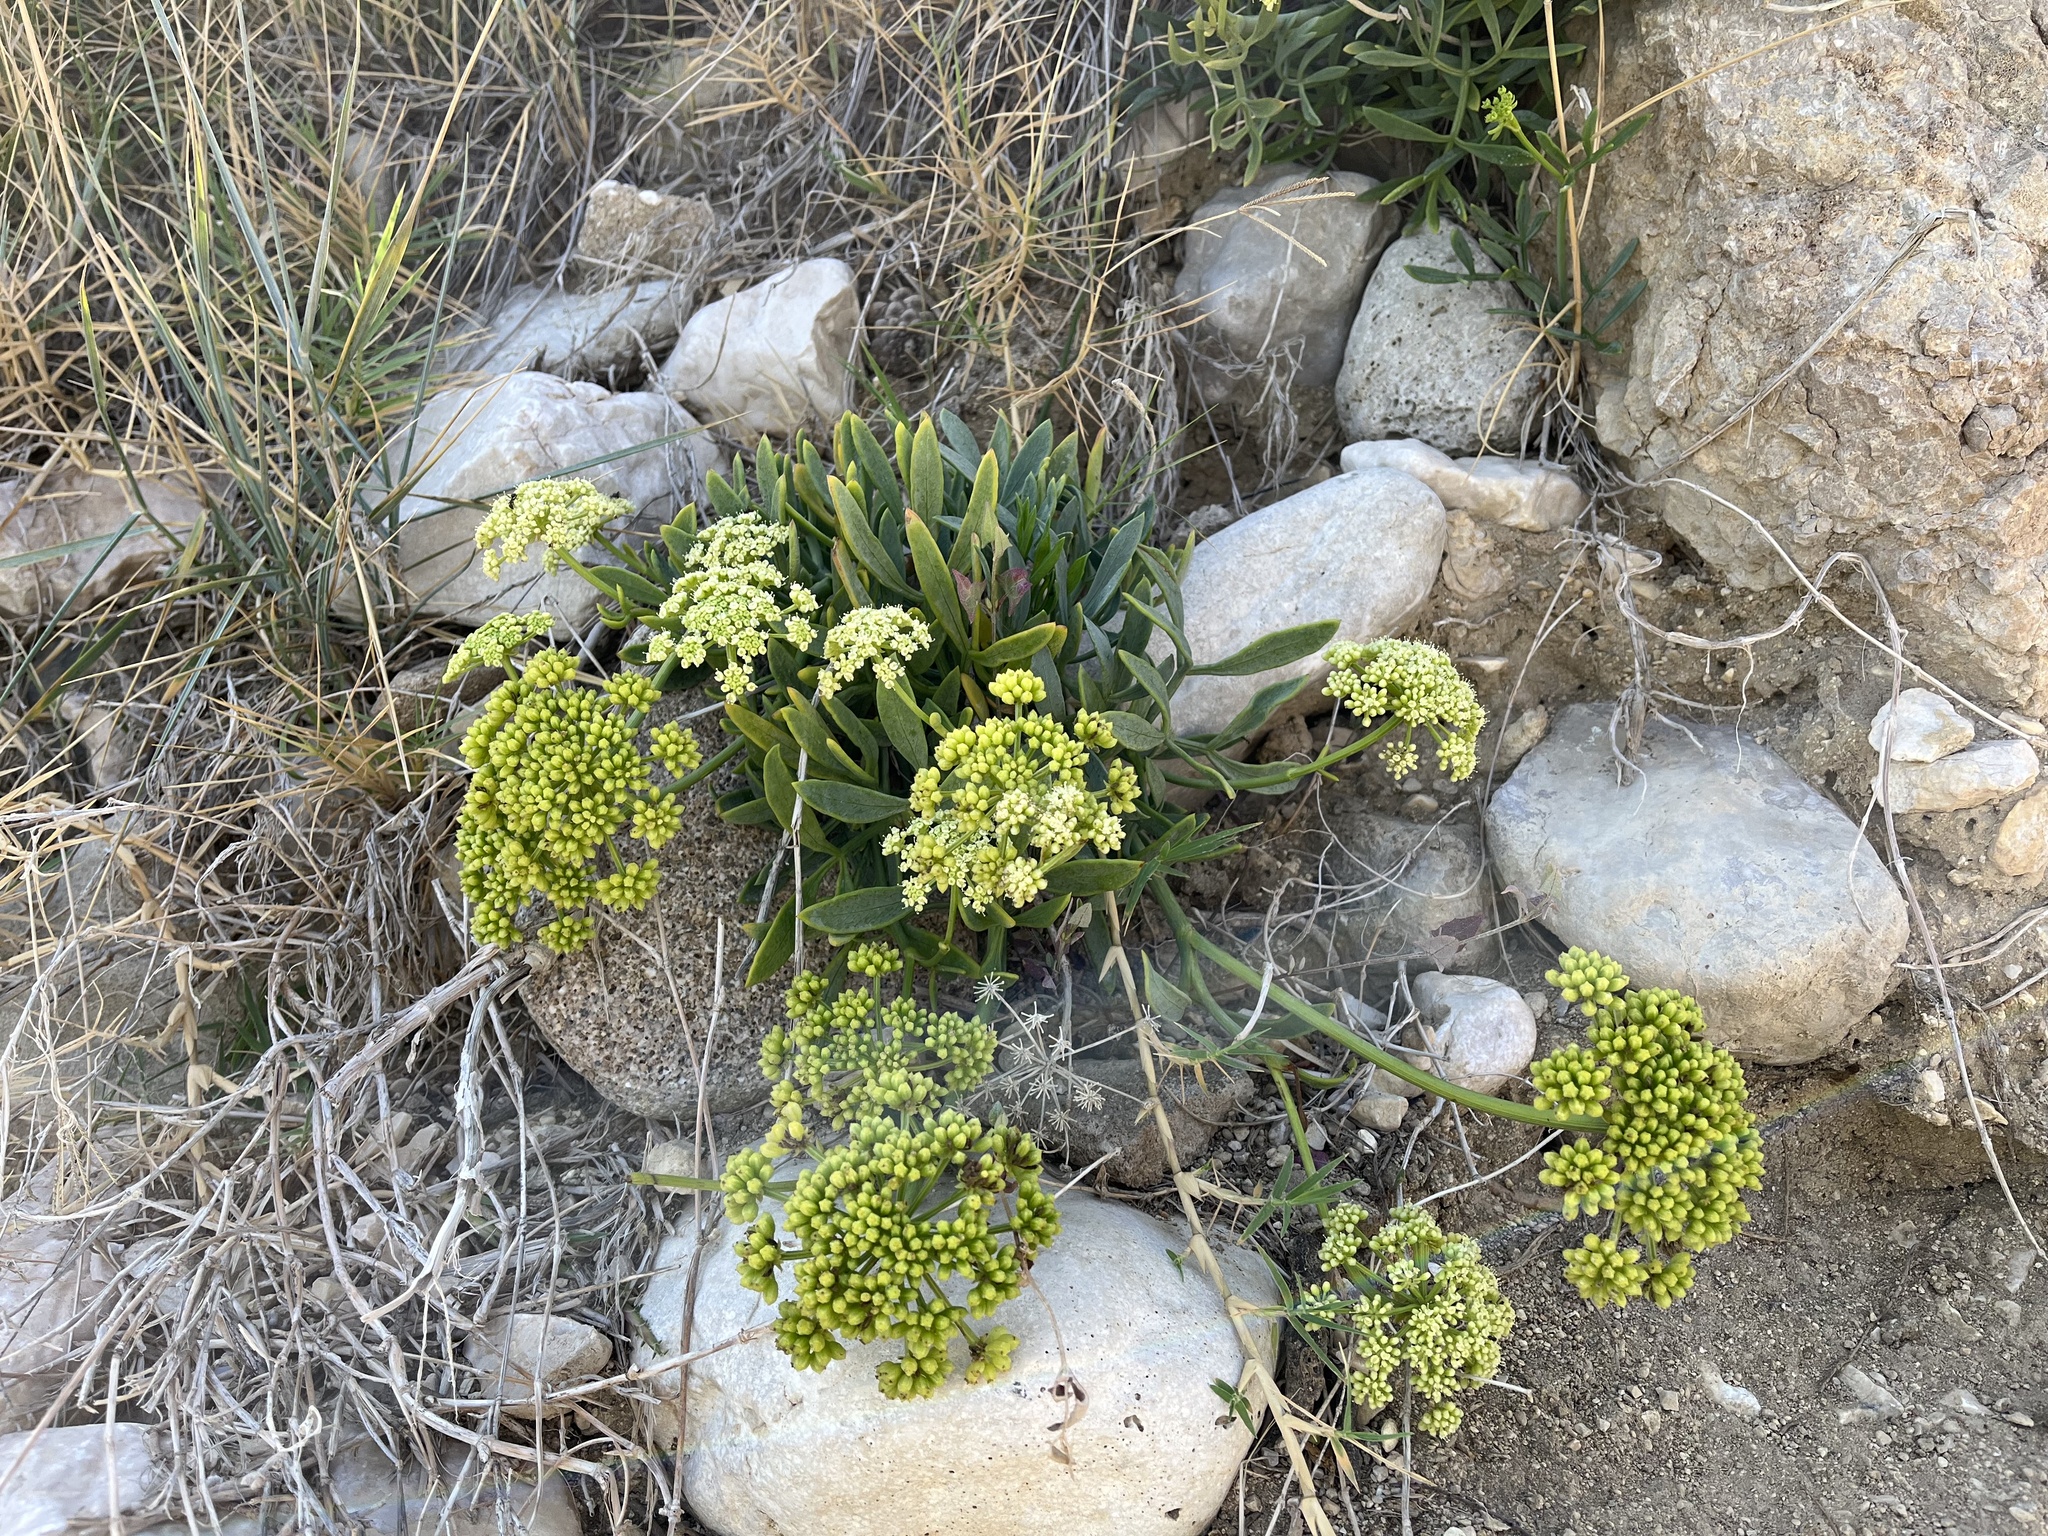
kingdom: Plantae
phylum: Tracheophyta
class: Magnoliopsida
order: Apiales
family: Apiaceae
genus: Crithmum
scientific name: Crithmum maritimum
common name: Rock samphire
